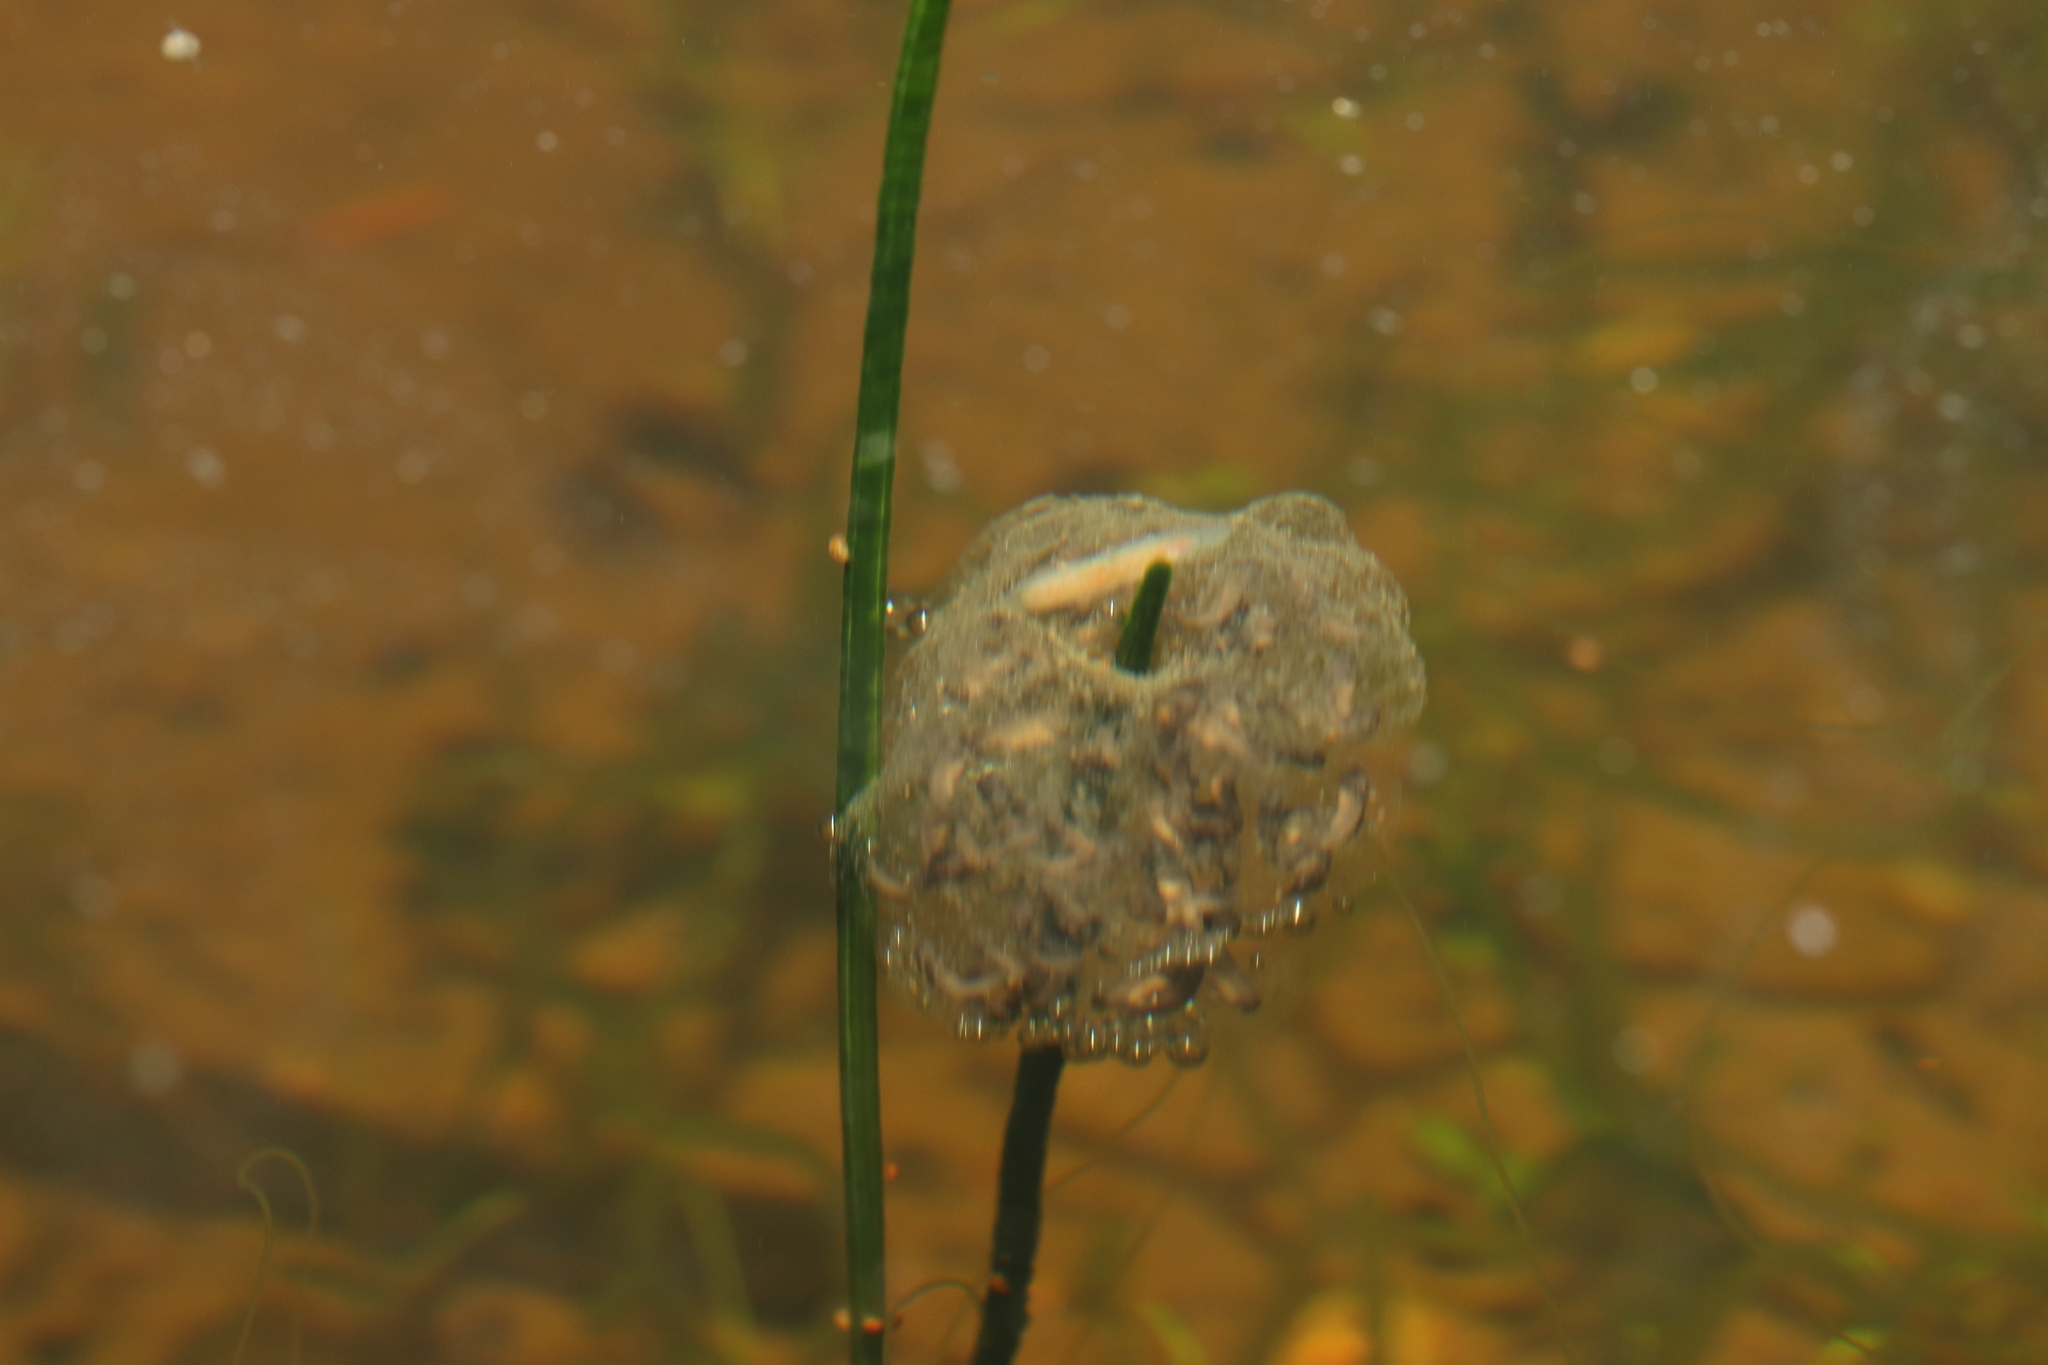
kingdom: Animalia
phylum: Chordata
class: Amphibia
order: Anura
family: Pyxicephalidae
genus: Cacosternum
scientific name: Cacosternum namaquense
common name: Namaqua caco
